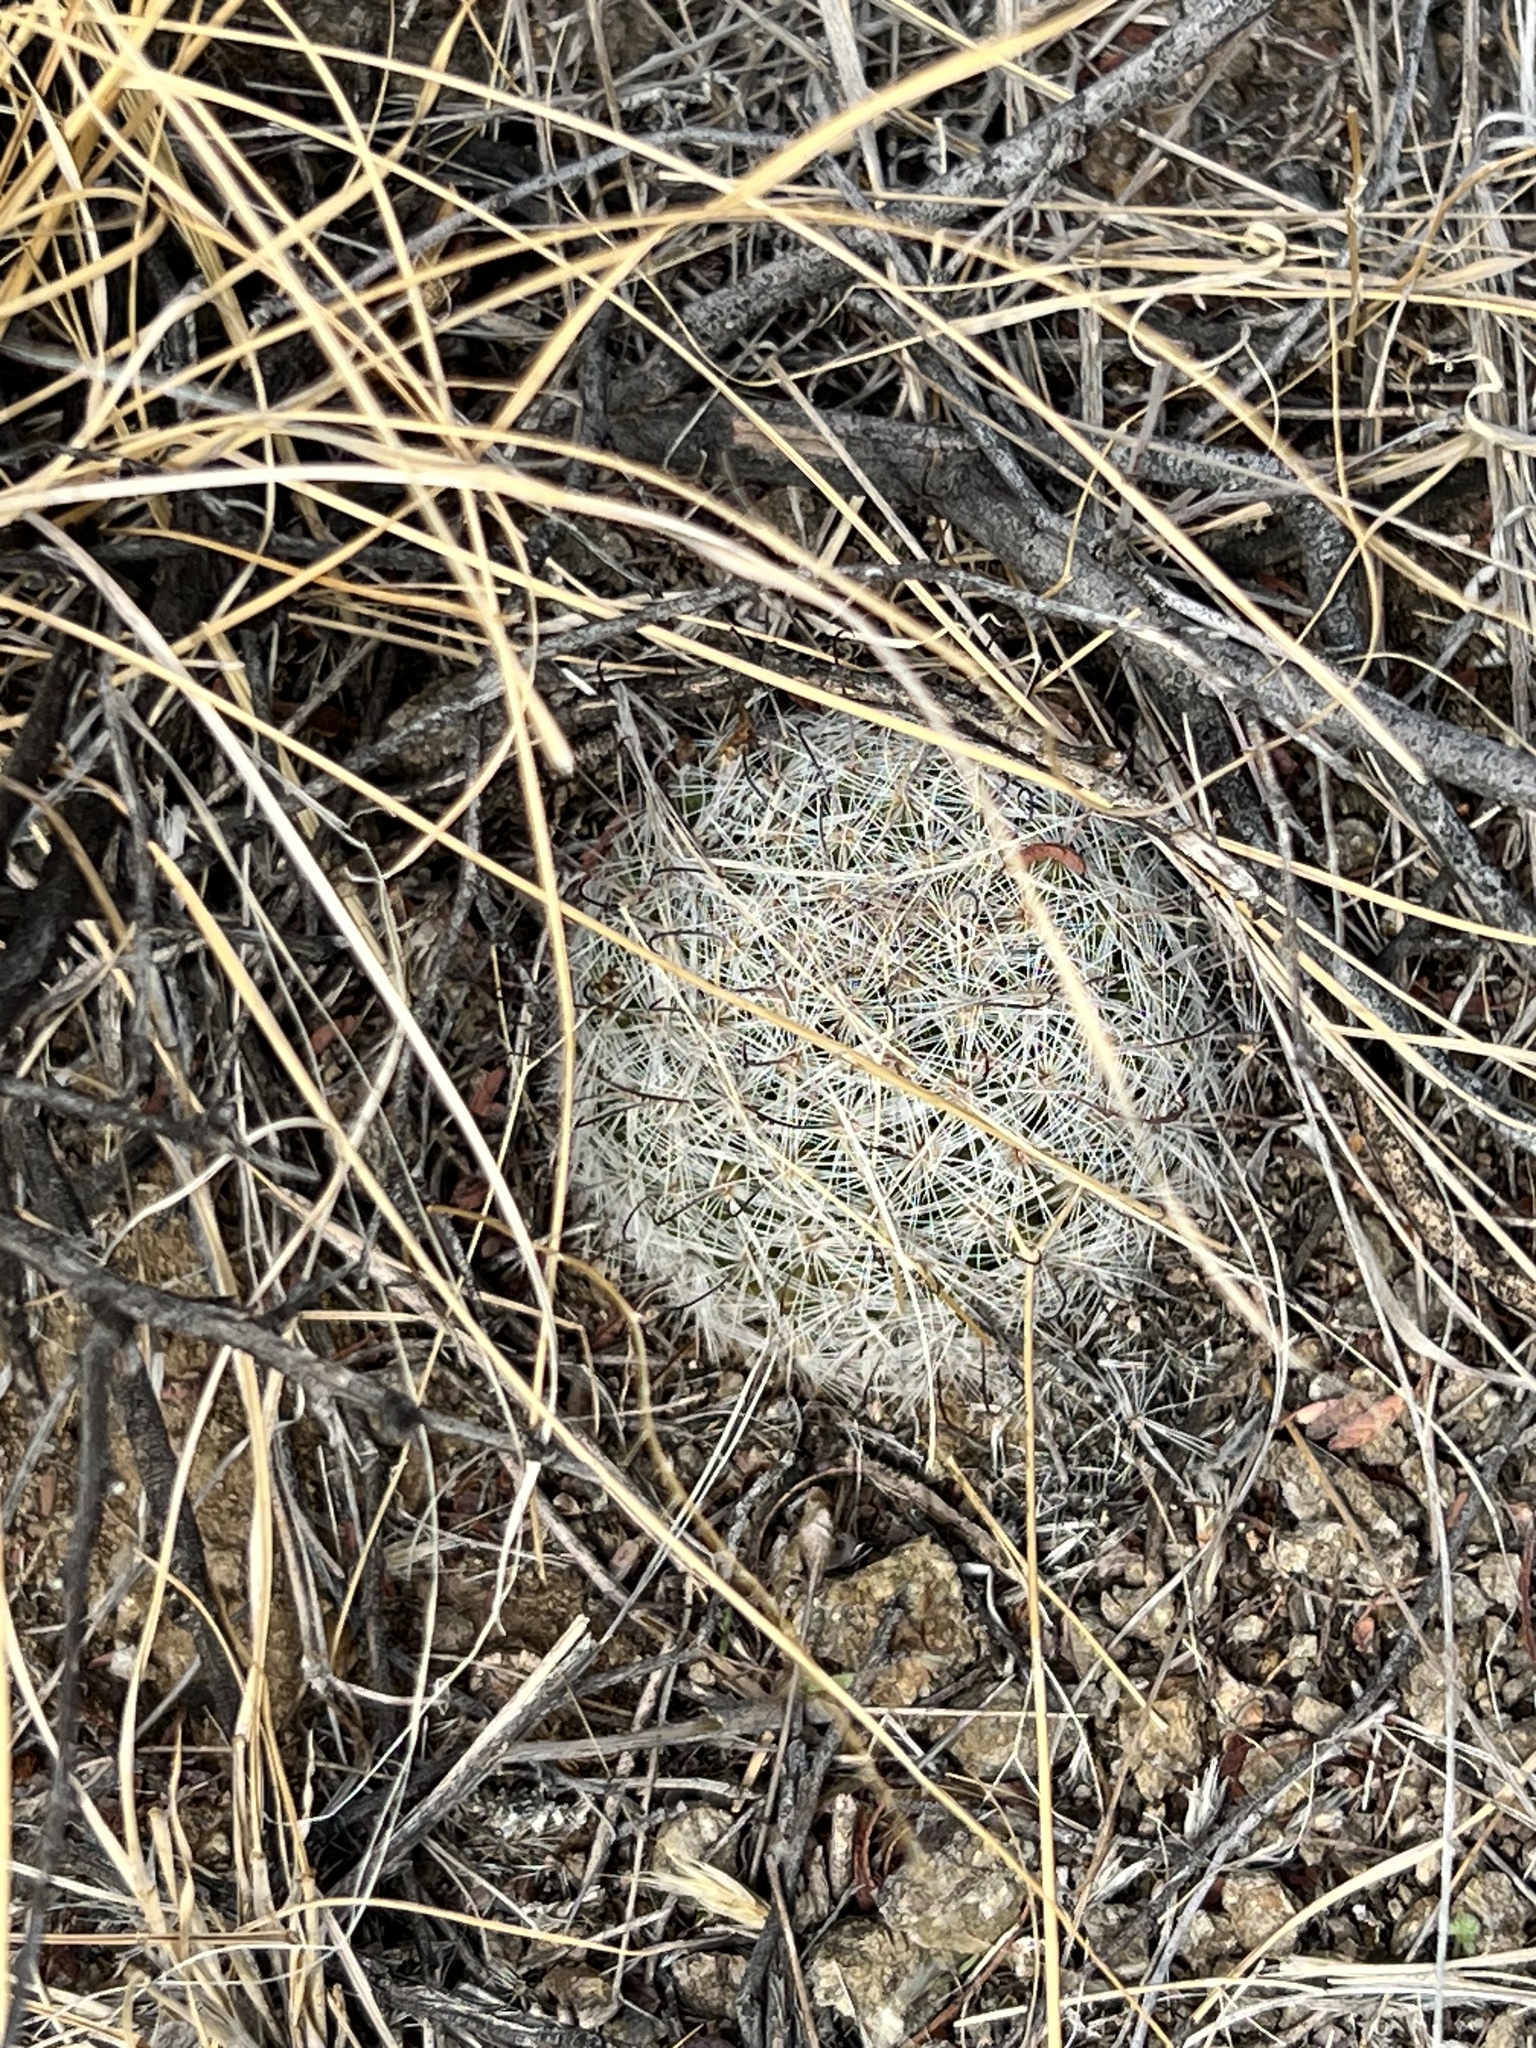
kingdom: Plantae
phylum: Tracheophyta
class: Magnoliopsida
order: Caryophyllales
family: Cactaceae
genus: Cochemiea
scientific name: Cochemiea grahamii
